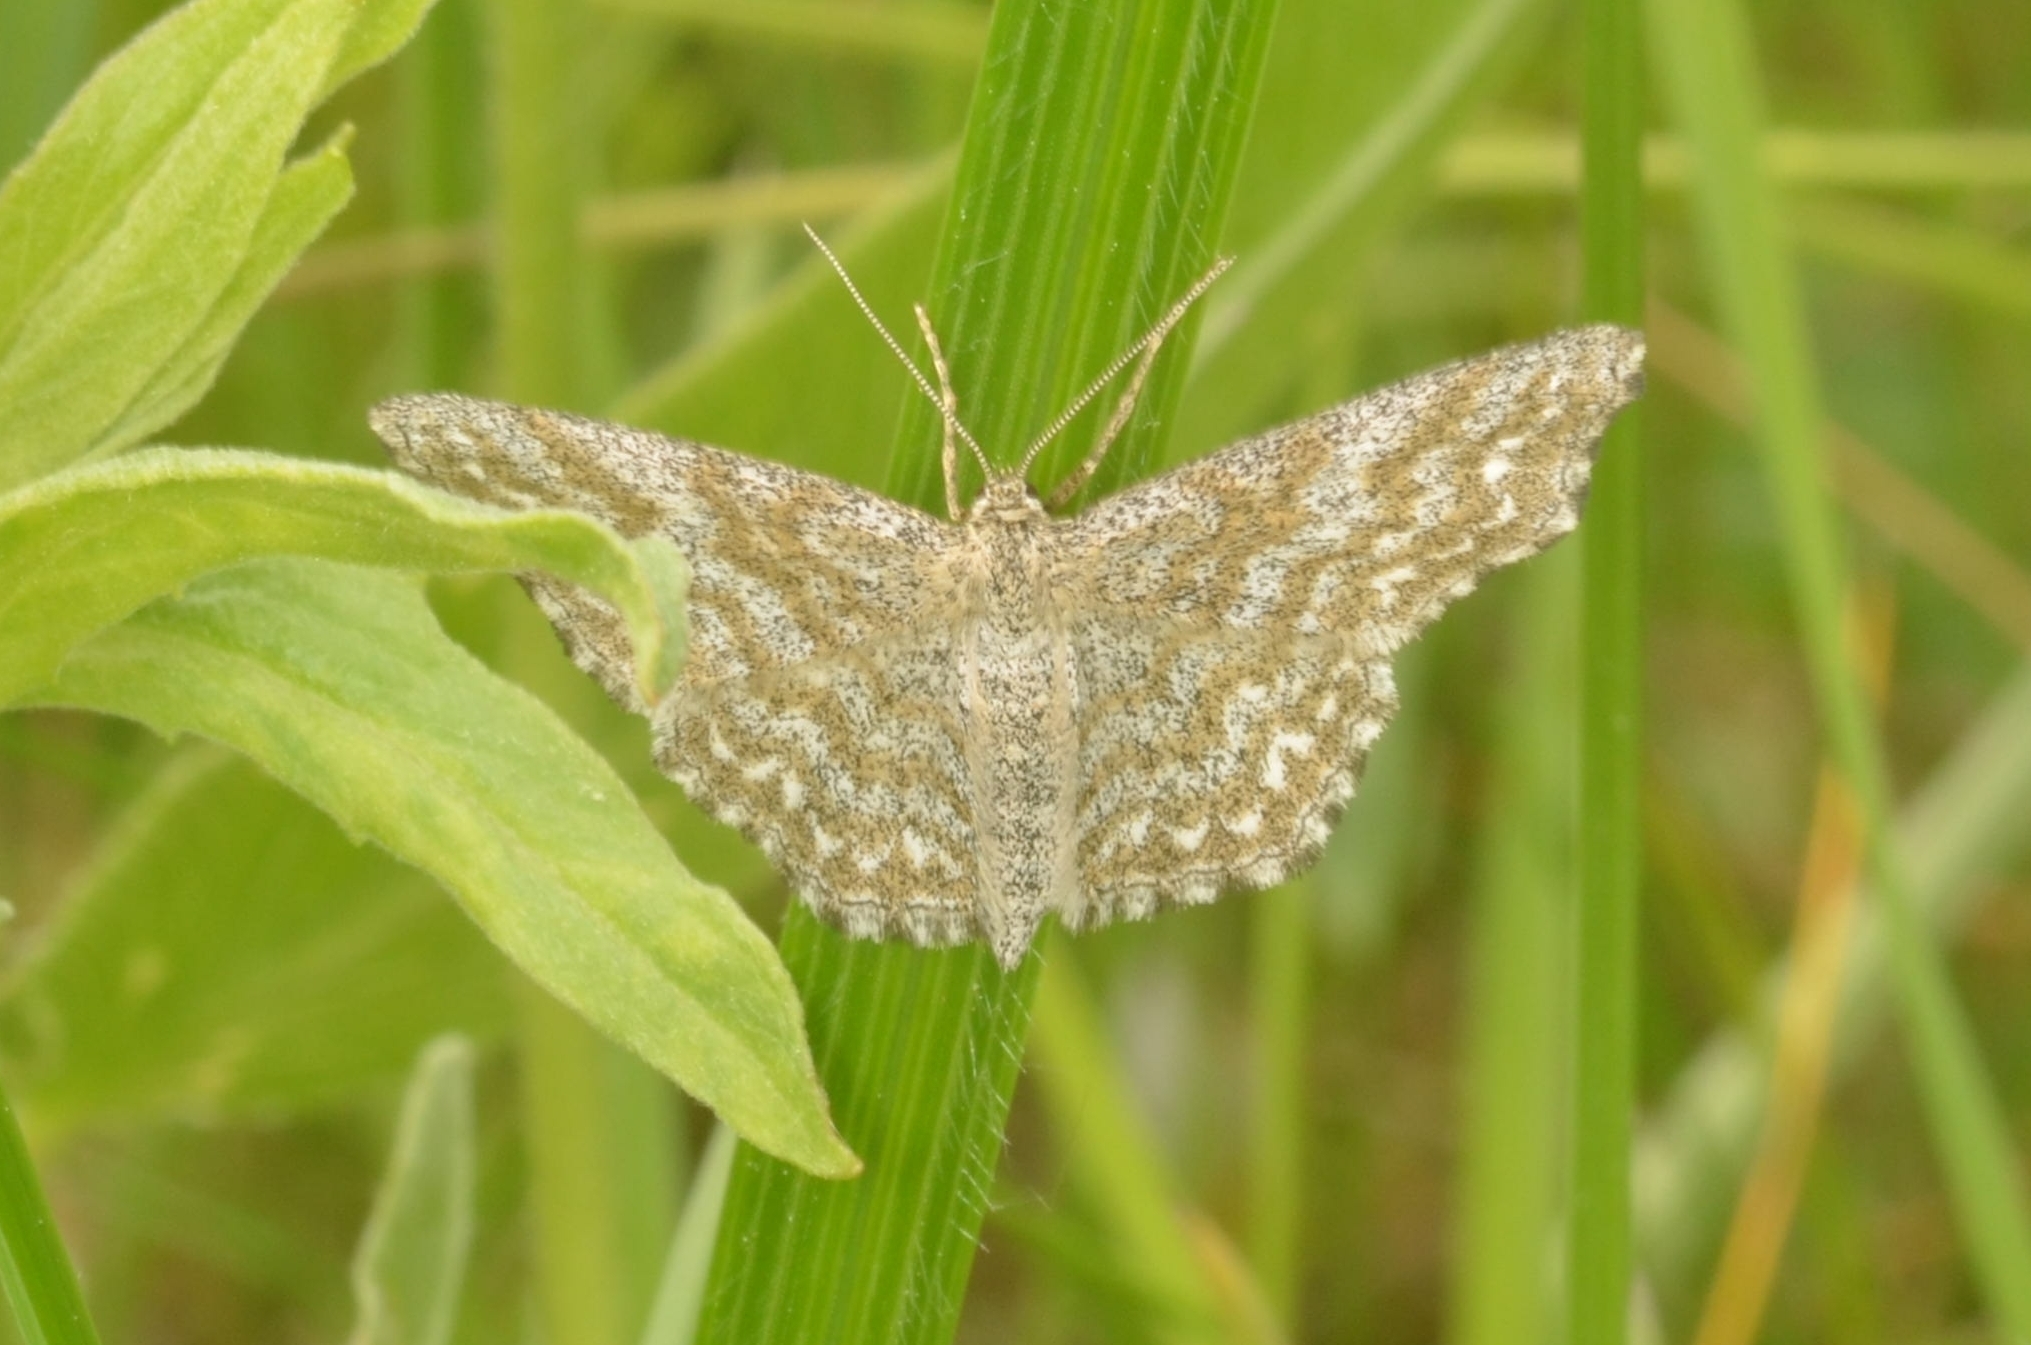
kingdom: Animalia
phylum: Arthropoda
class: Insecta
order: Lepidoptera
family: Geometridae
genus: Scopula
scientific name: Scopula immorata
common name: Lewes wave
